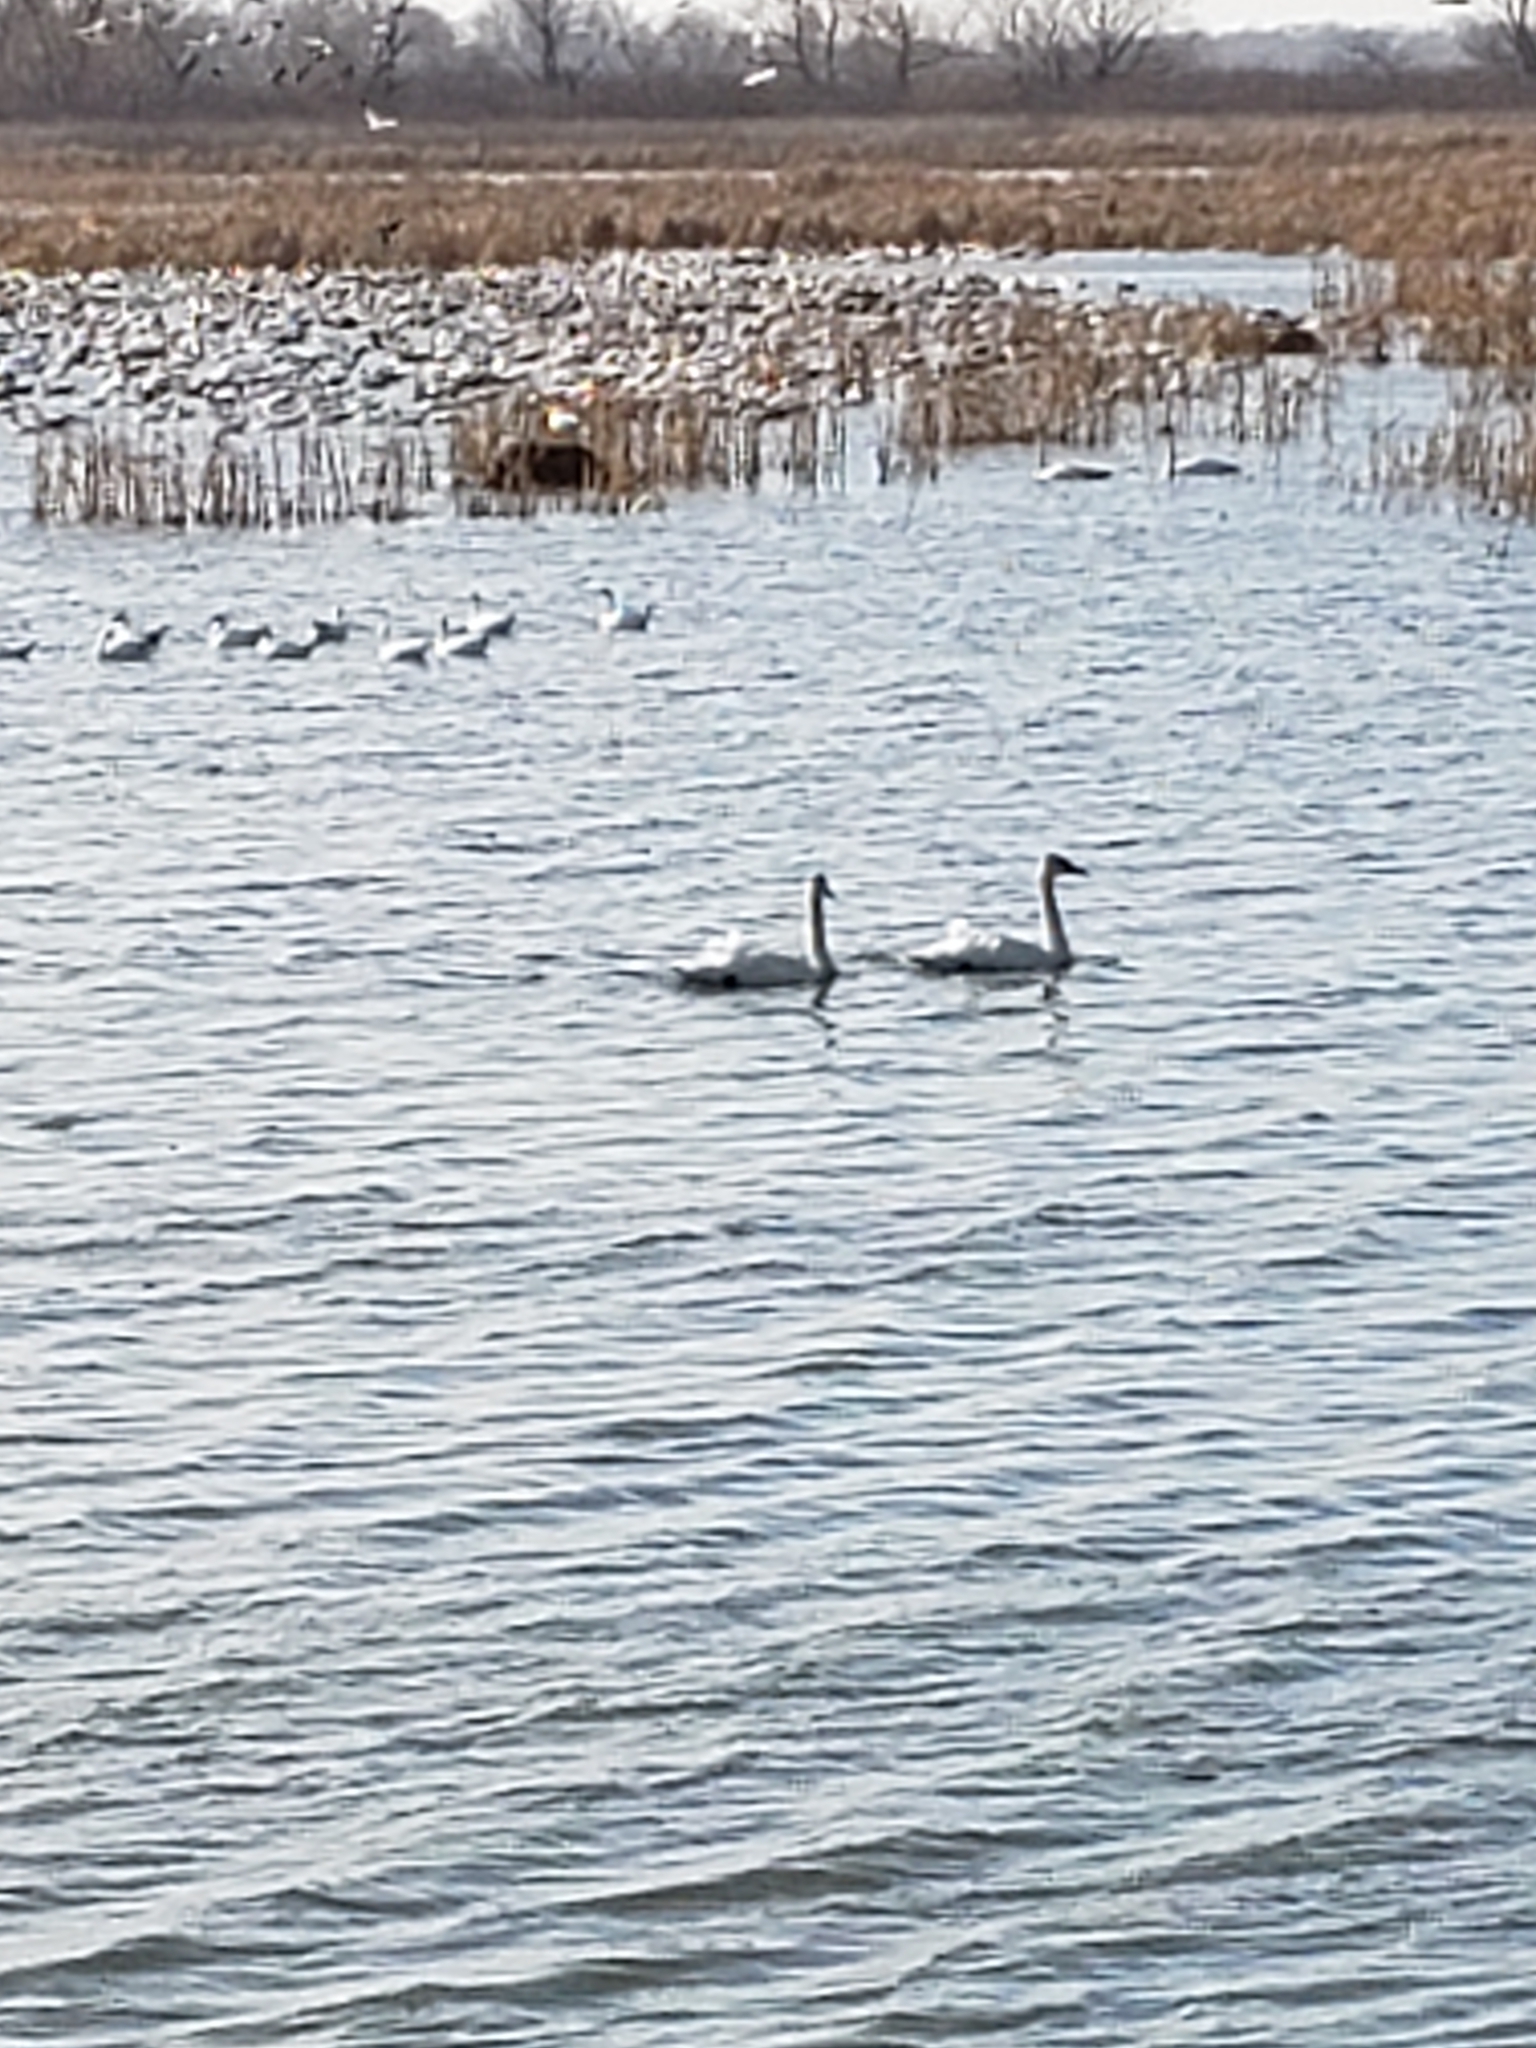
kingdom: Animalia
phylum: Chordata
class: Aves
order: Anseriformes
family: Anatidae
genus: Cygnus
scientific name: Cygnus buccinator
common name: Trumpeter swan
